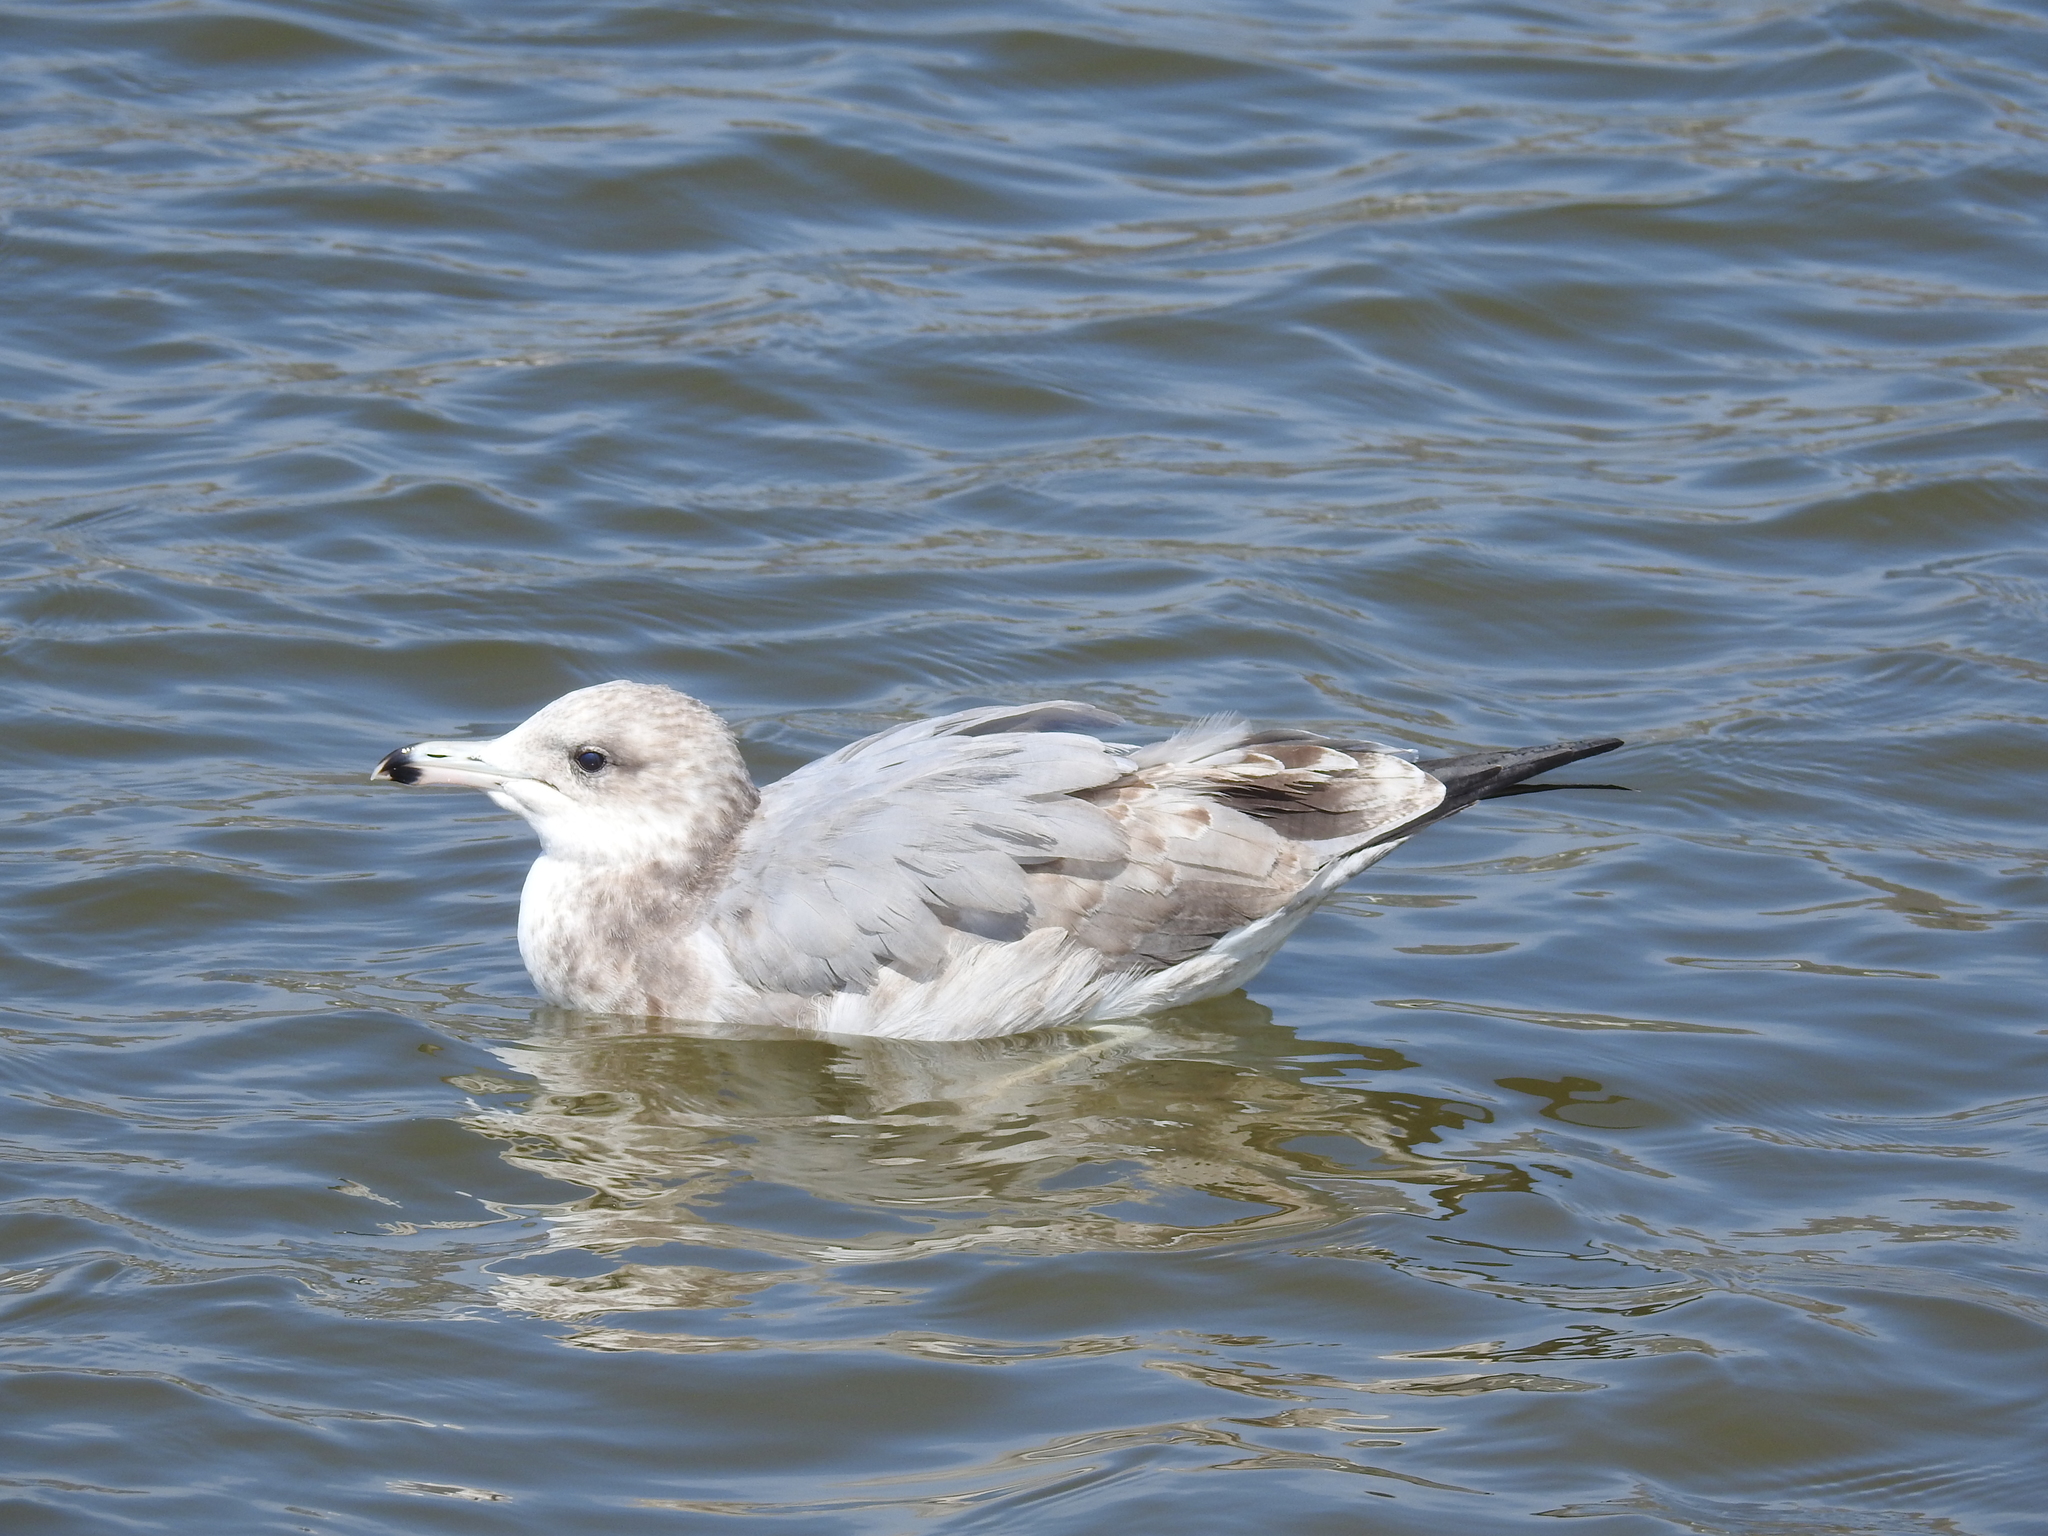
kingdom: Animalia
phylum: Chordata
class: Aves
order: Charadriiformes
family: Laridae
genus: Larus
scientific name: Larus delawarensis
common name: Ring-billed gull
